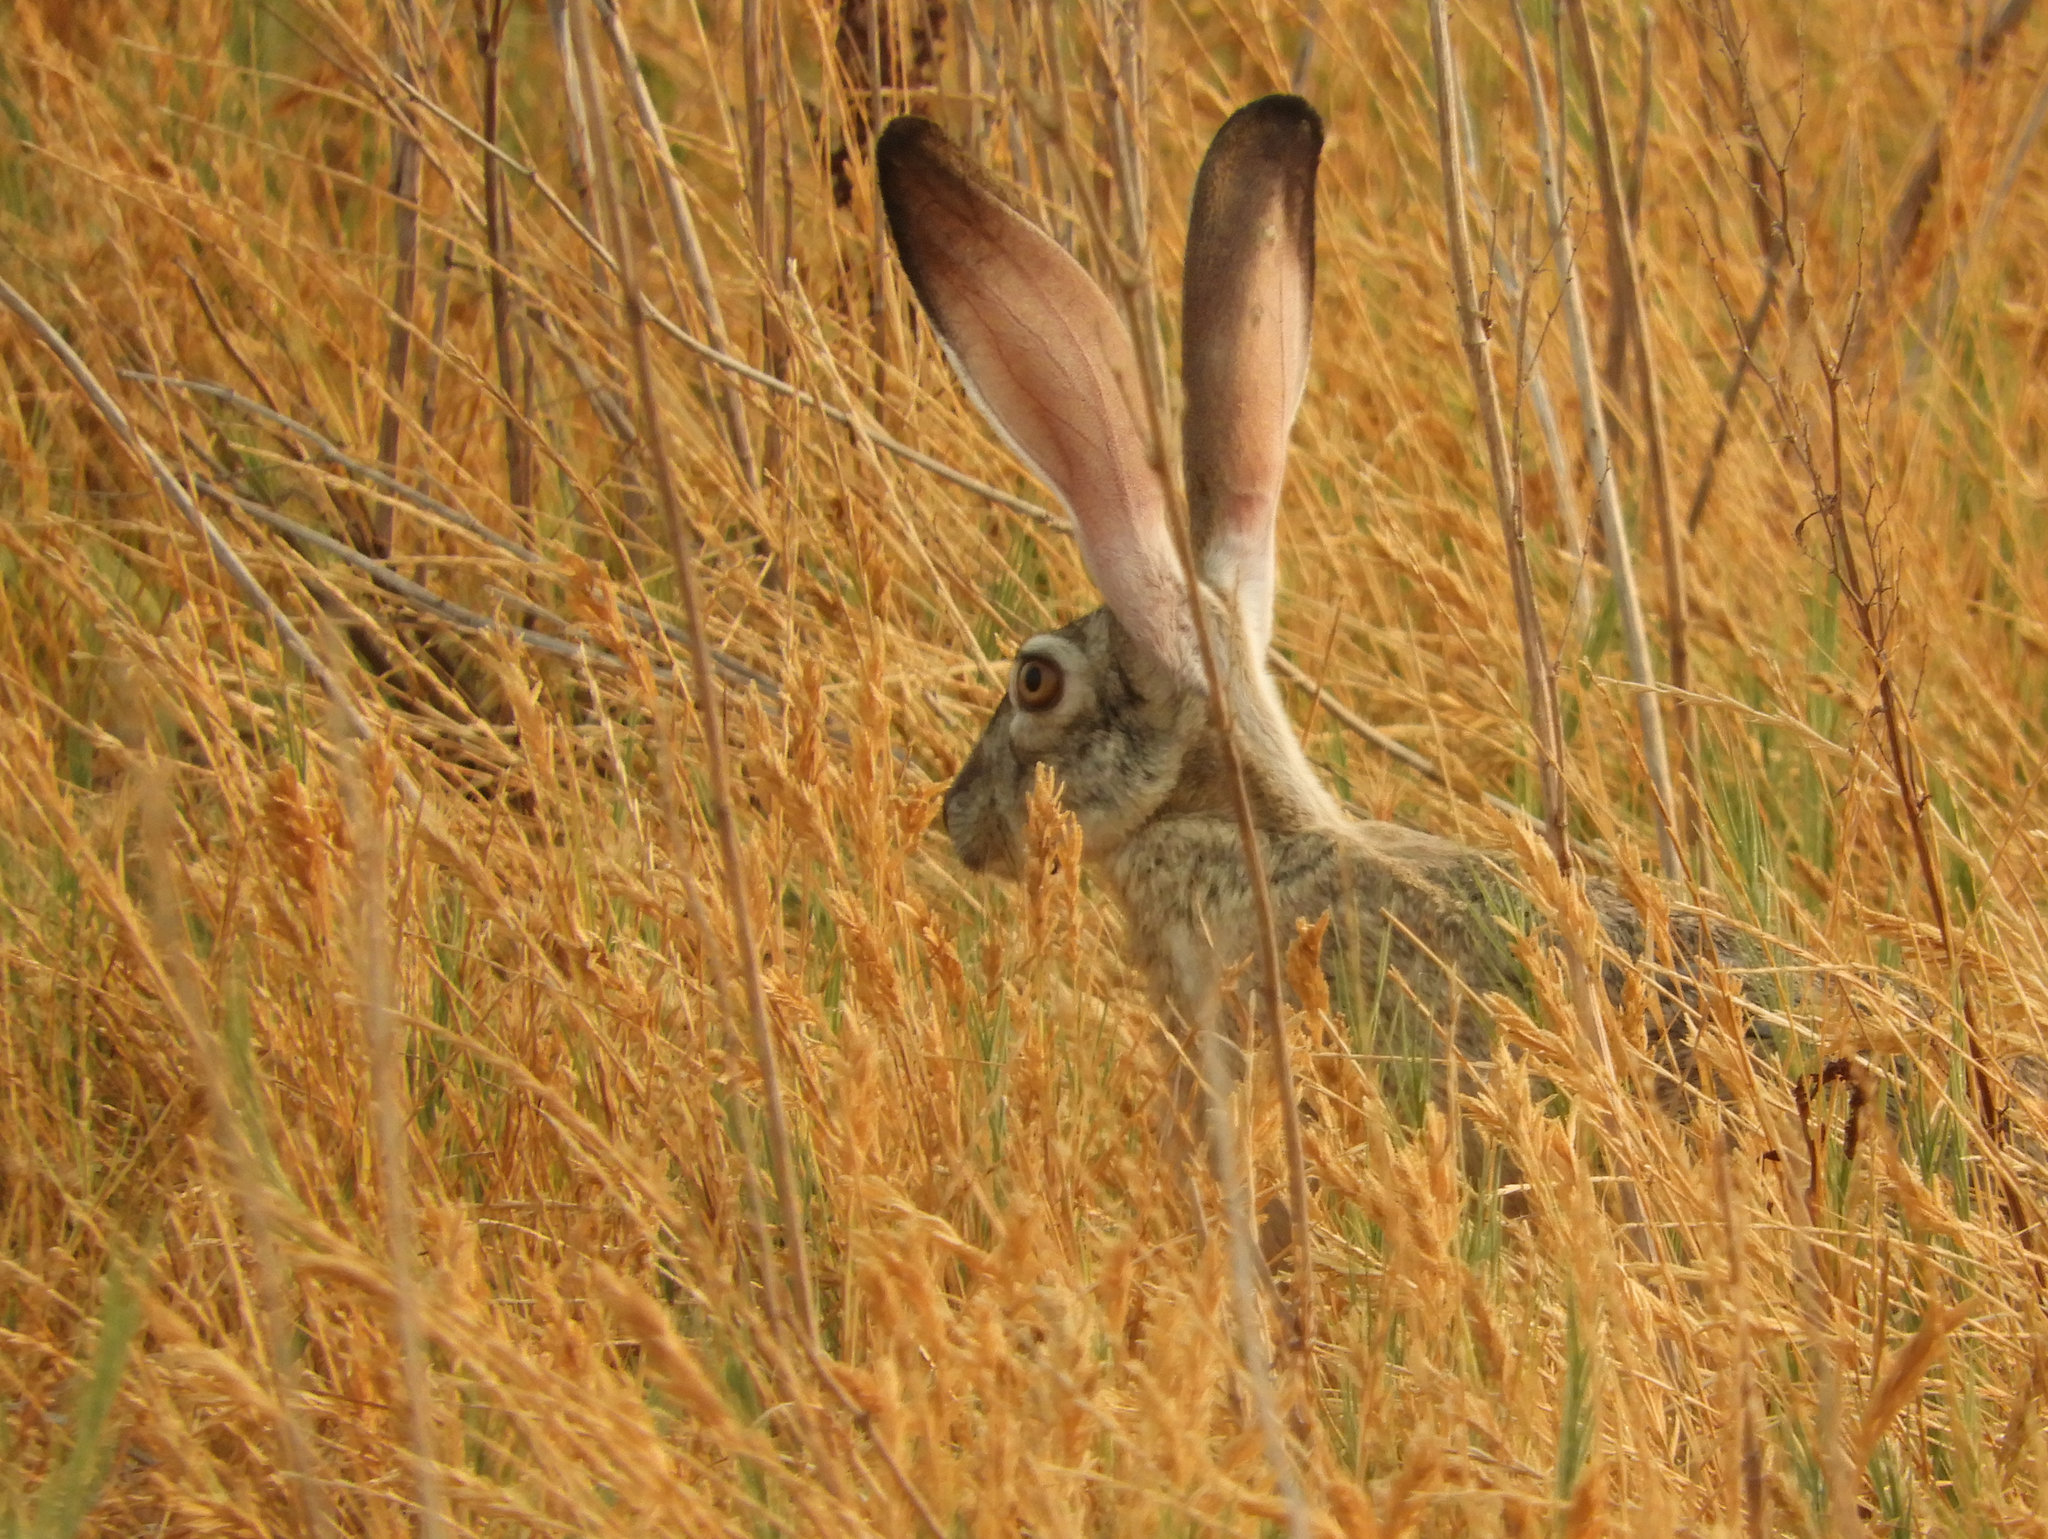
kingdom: Animalia
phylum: Chordata
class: Mammalia
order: Lagomorpha
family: Leporidae
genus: Lepus
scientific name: Lepus californicus
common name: Black-tailed jackrabbit
